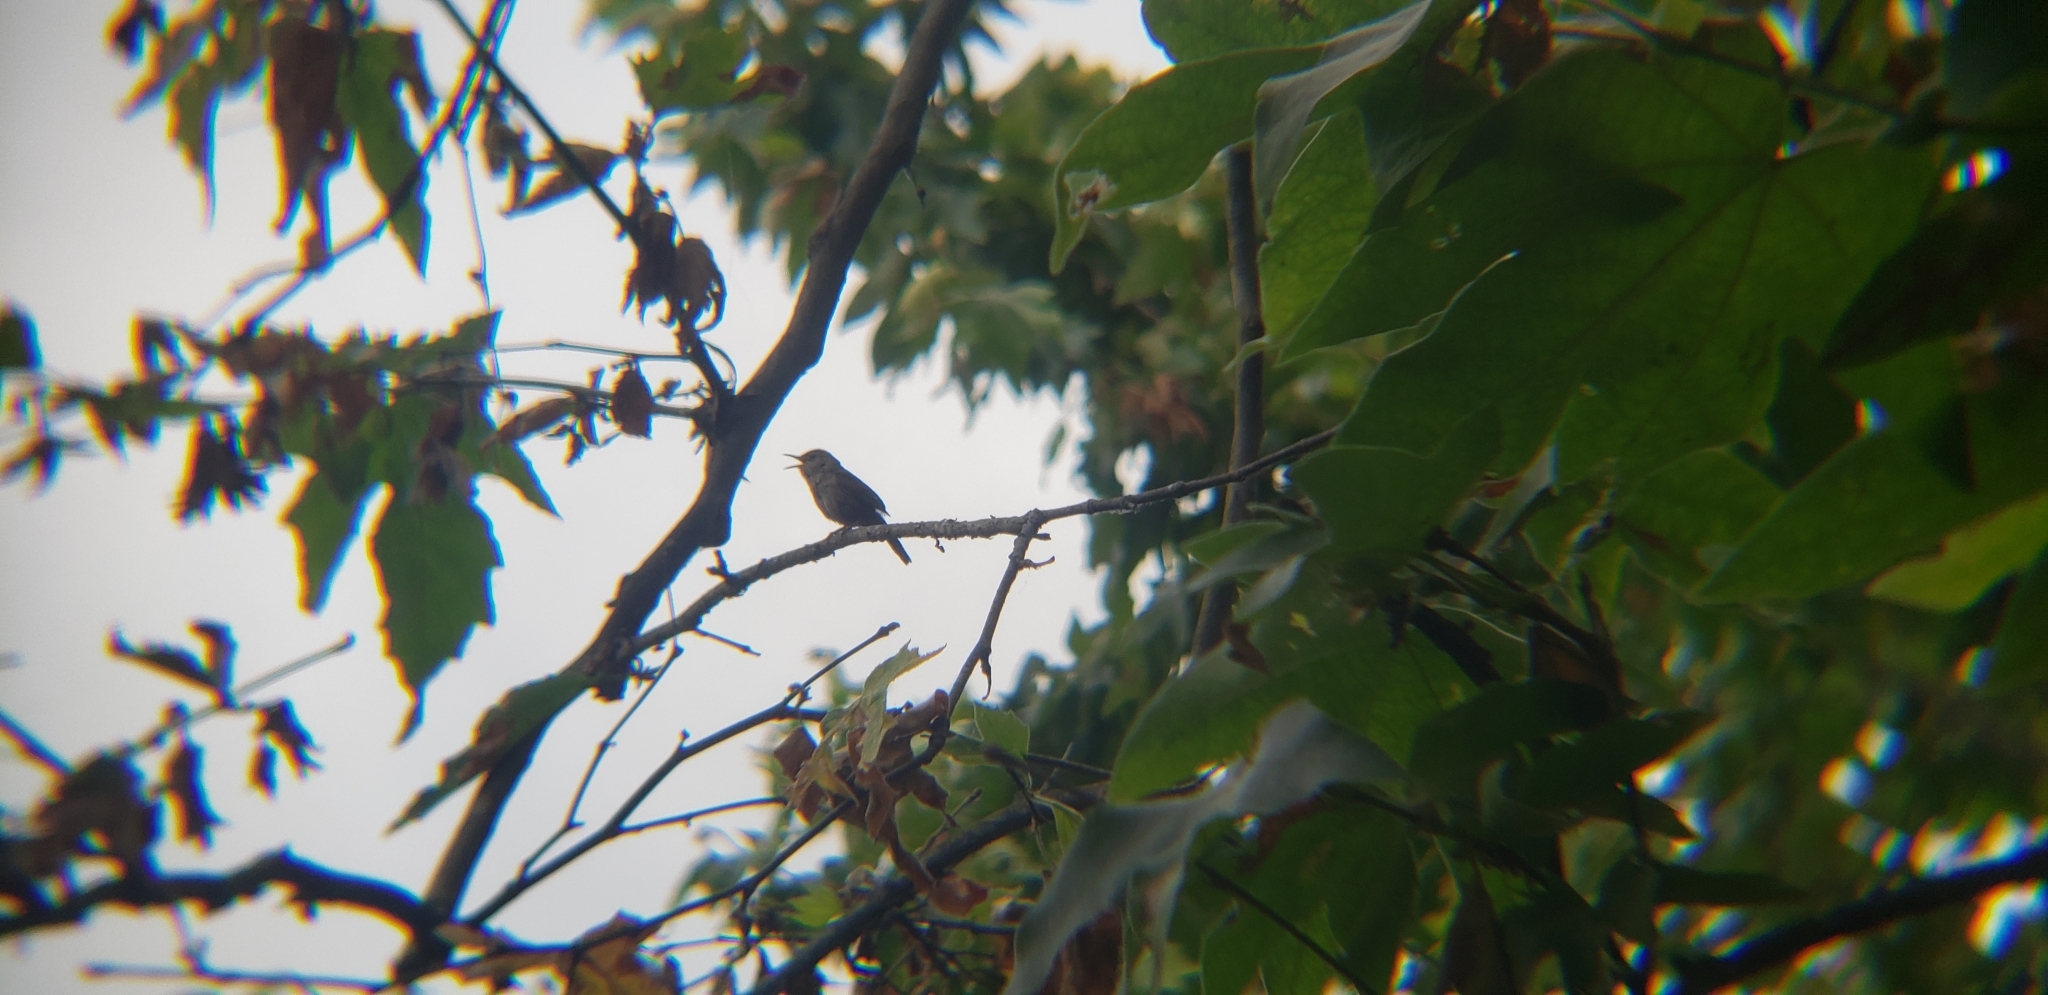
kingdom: Animalia
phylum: Chordata
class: Aves
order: Passeriformes
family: Troglodytidae
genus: Troglodytes
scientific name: Troglodytes aedon
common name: House wren
